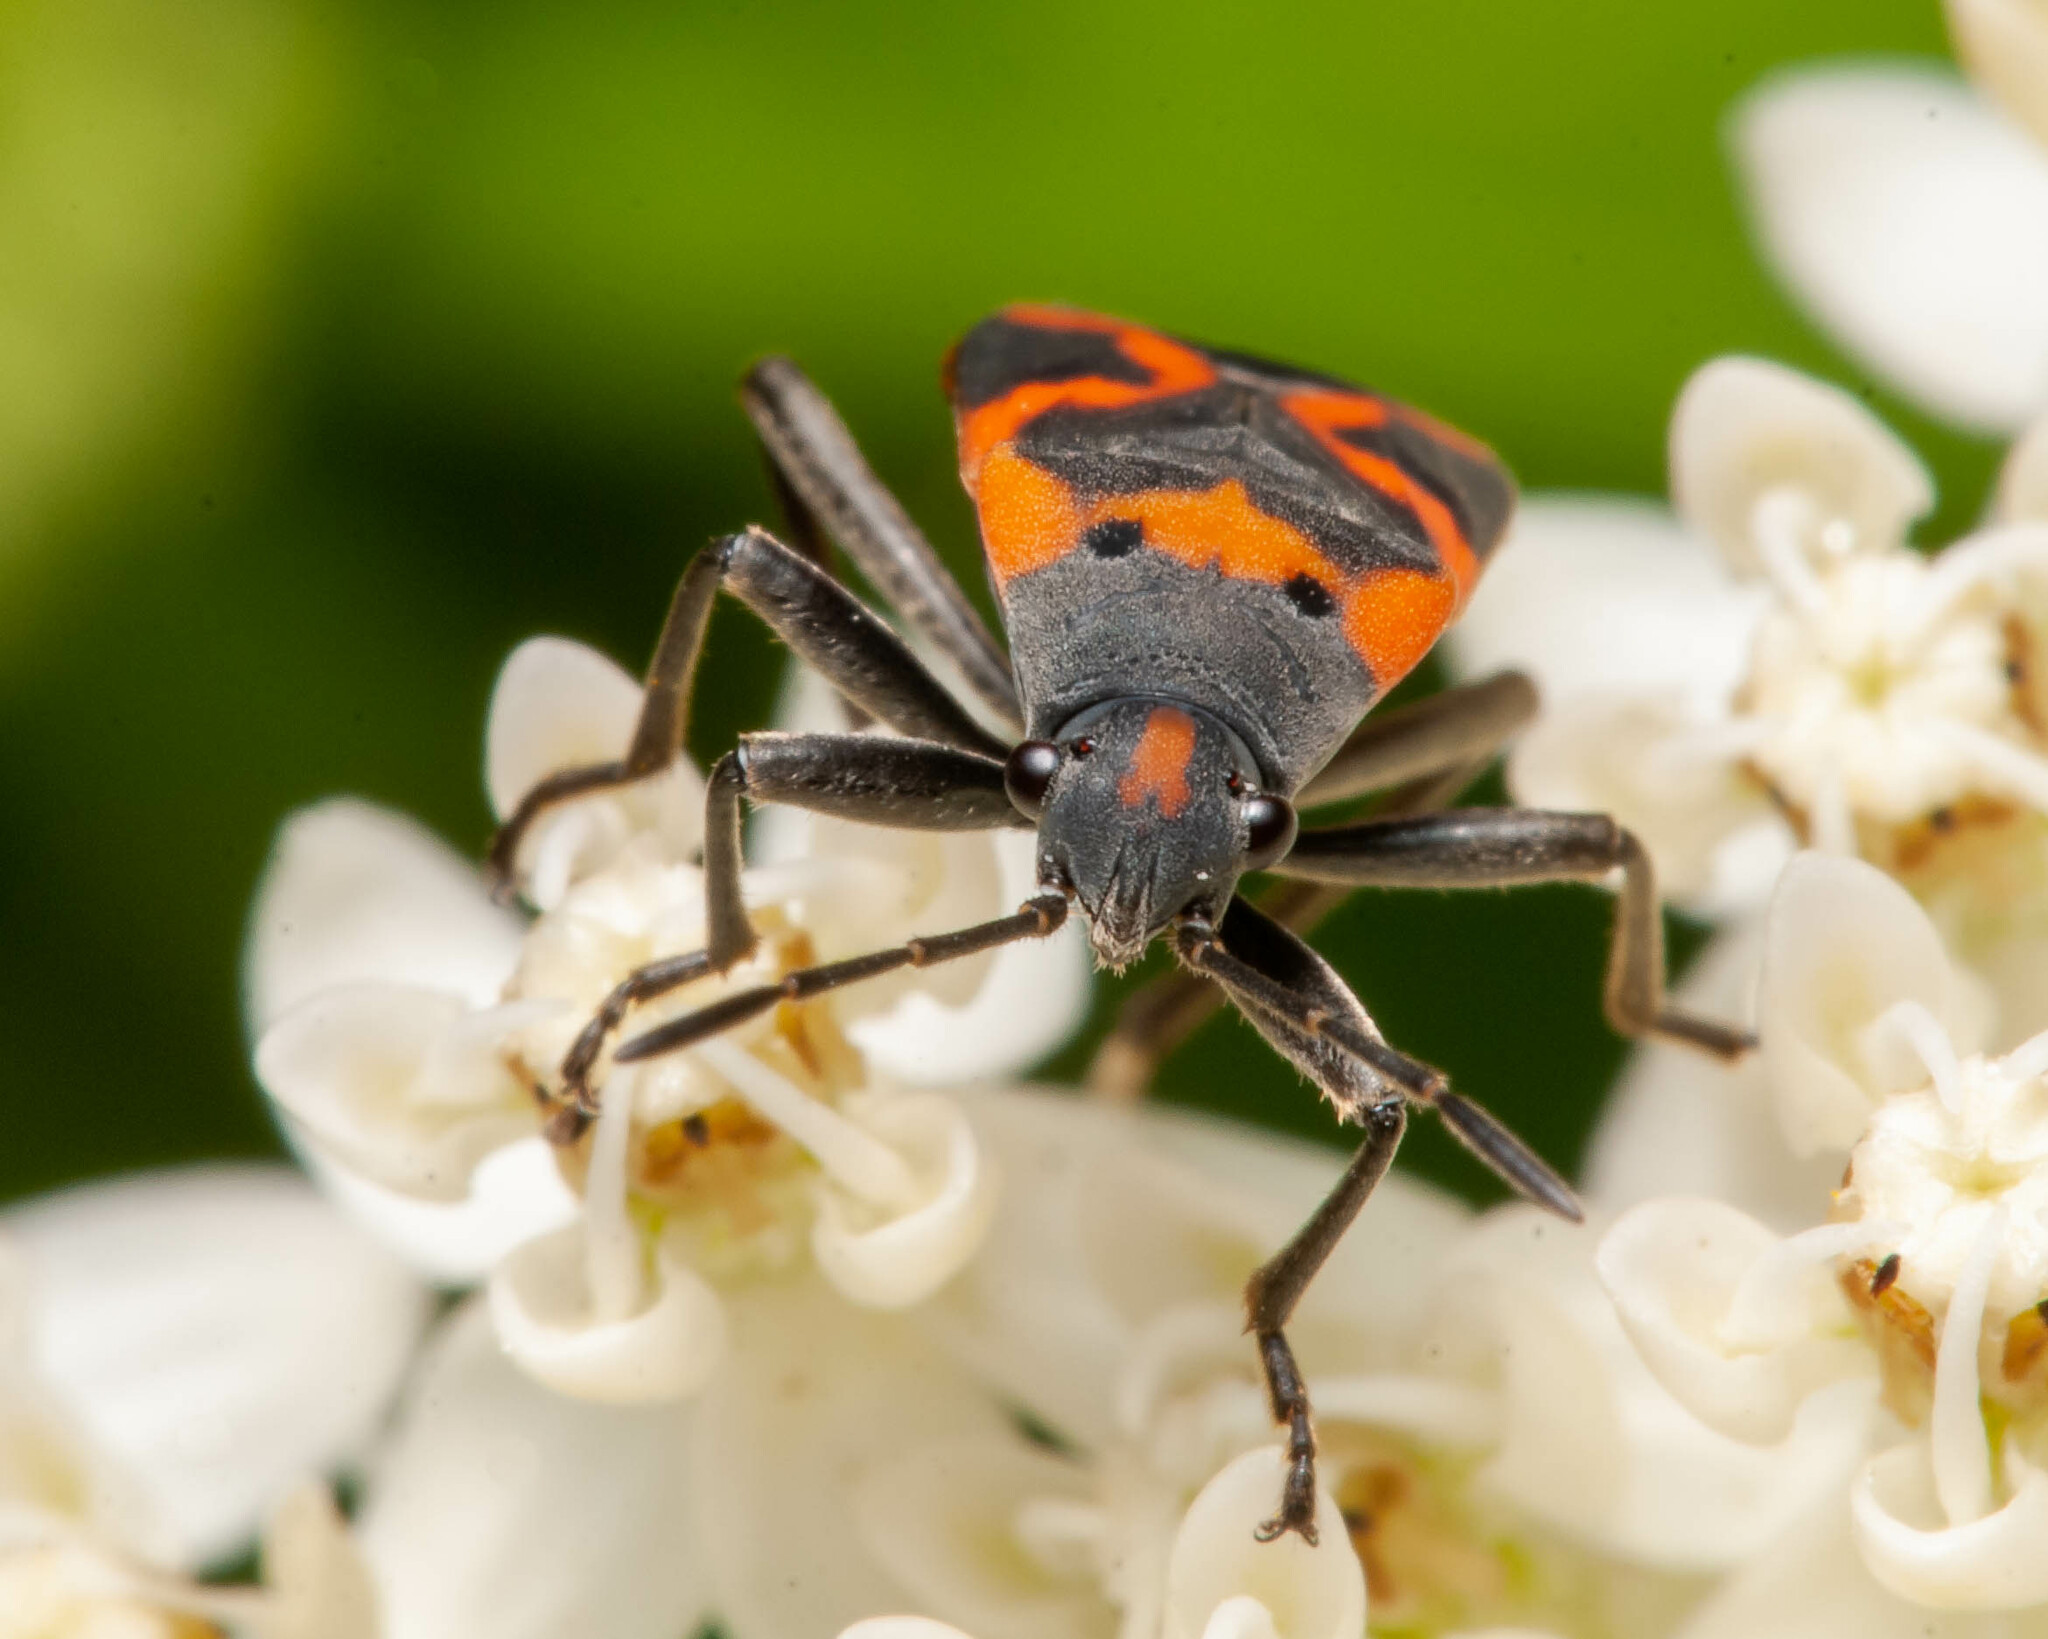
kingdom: Animalia
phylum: Arthropoda
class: Insecta
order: Hemiptera
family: Lygaeidae
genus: Lygaeus
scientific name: Lygaeus kalmii
